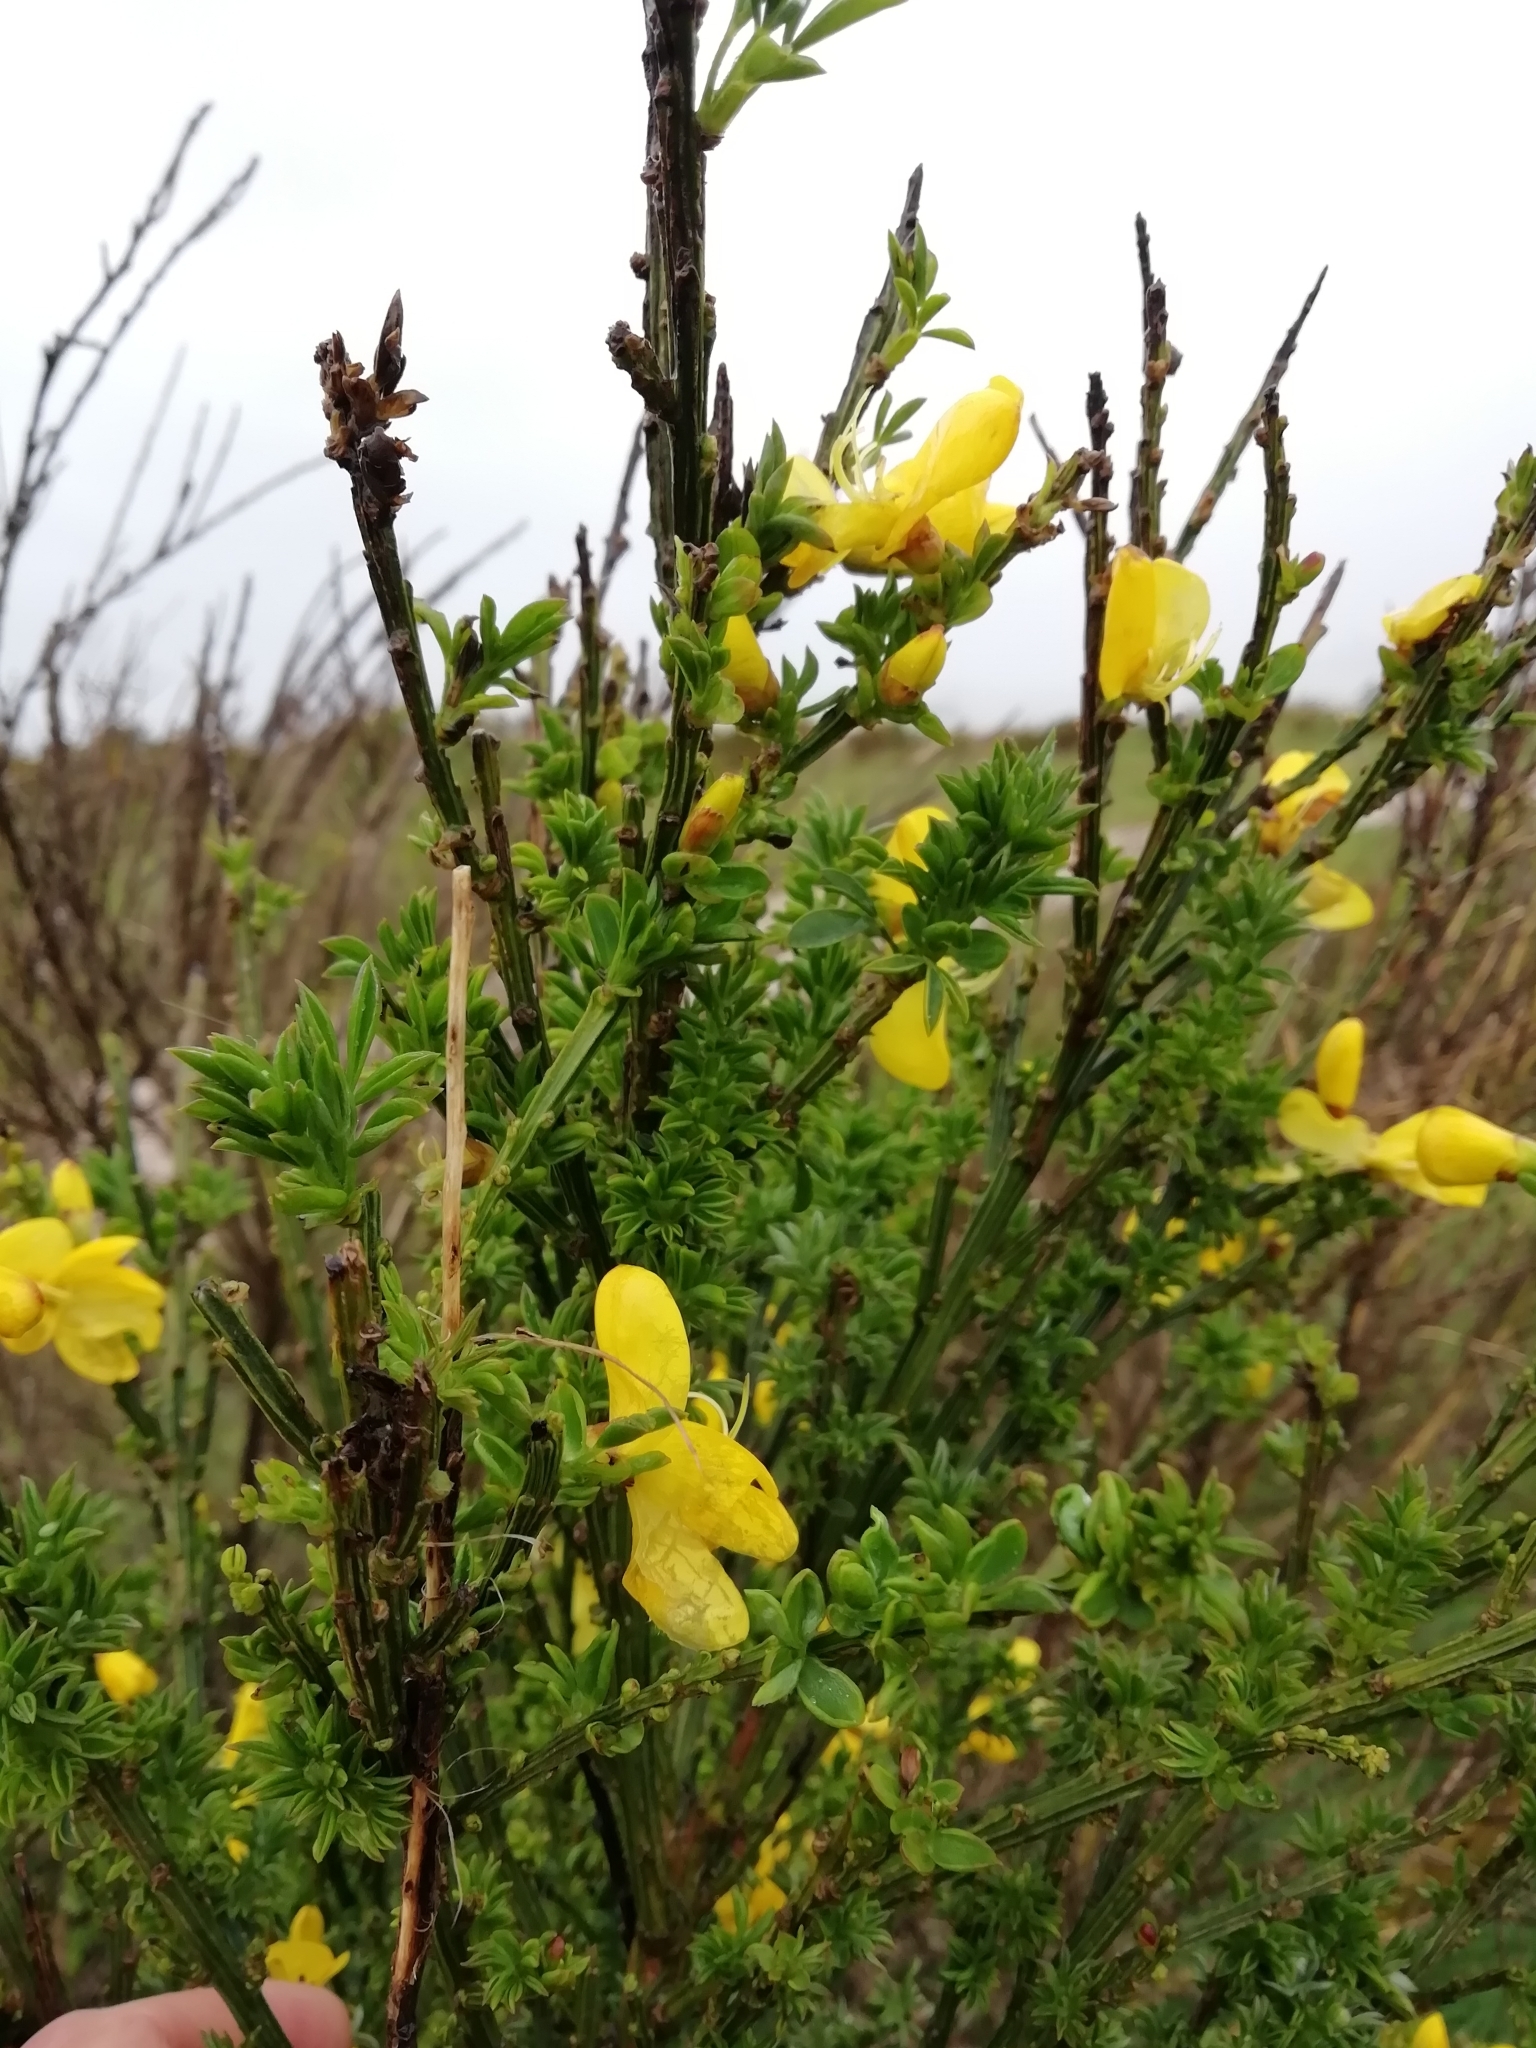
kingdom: Plantae
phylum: Tracheophyta
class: Magnoliopsida
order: Fabales
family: Fabaceae
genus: Cytisus
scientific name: Cytisus scoparius
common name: Scotch broom
